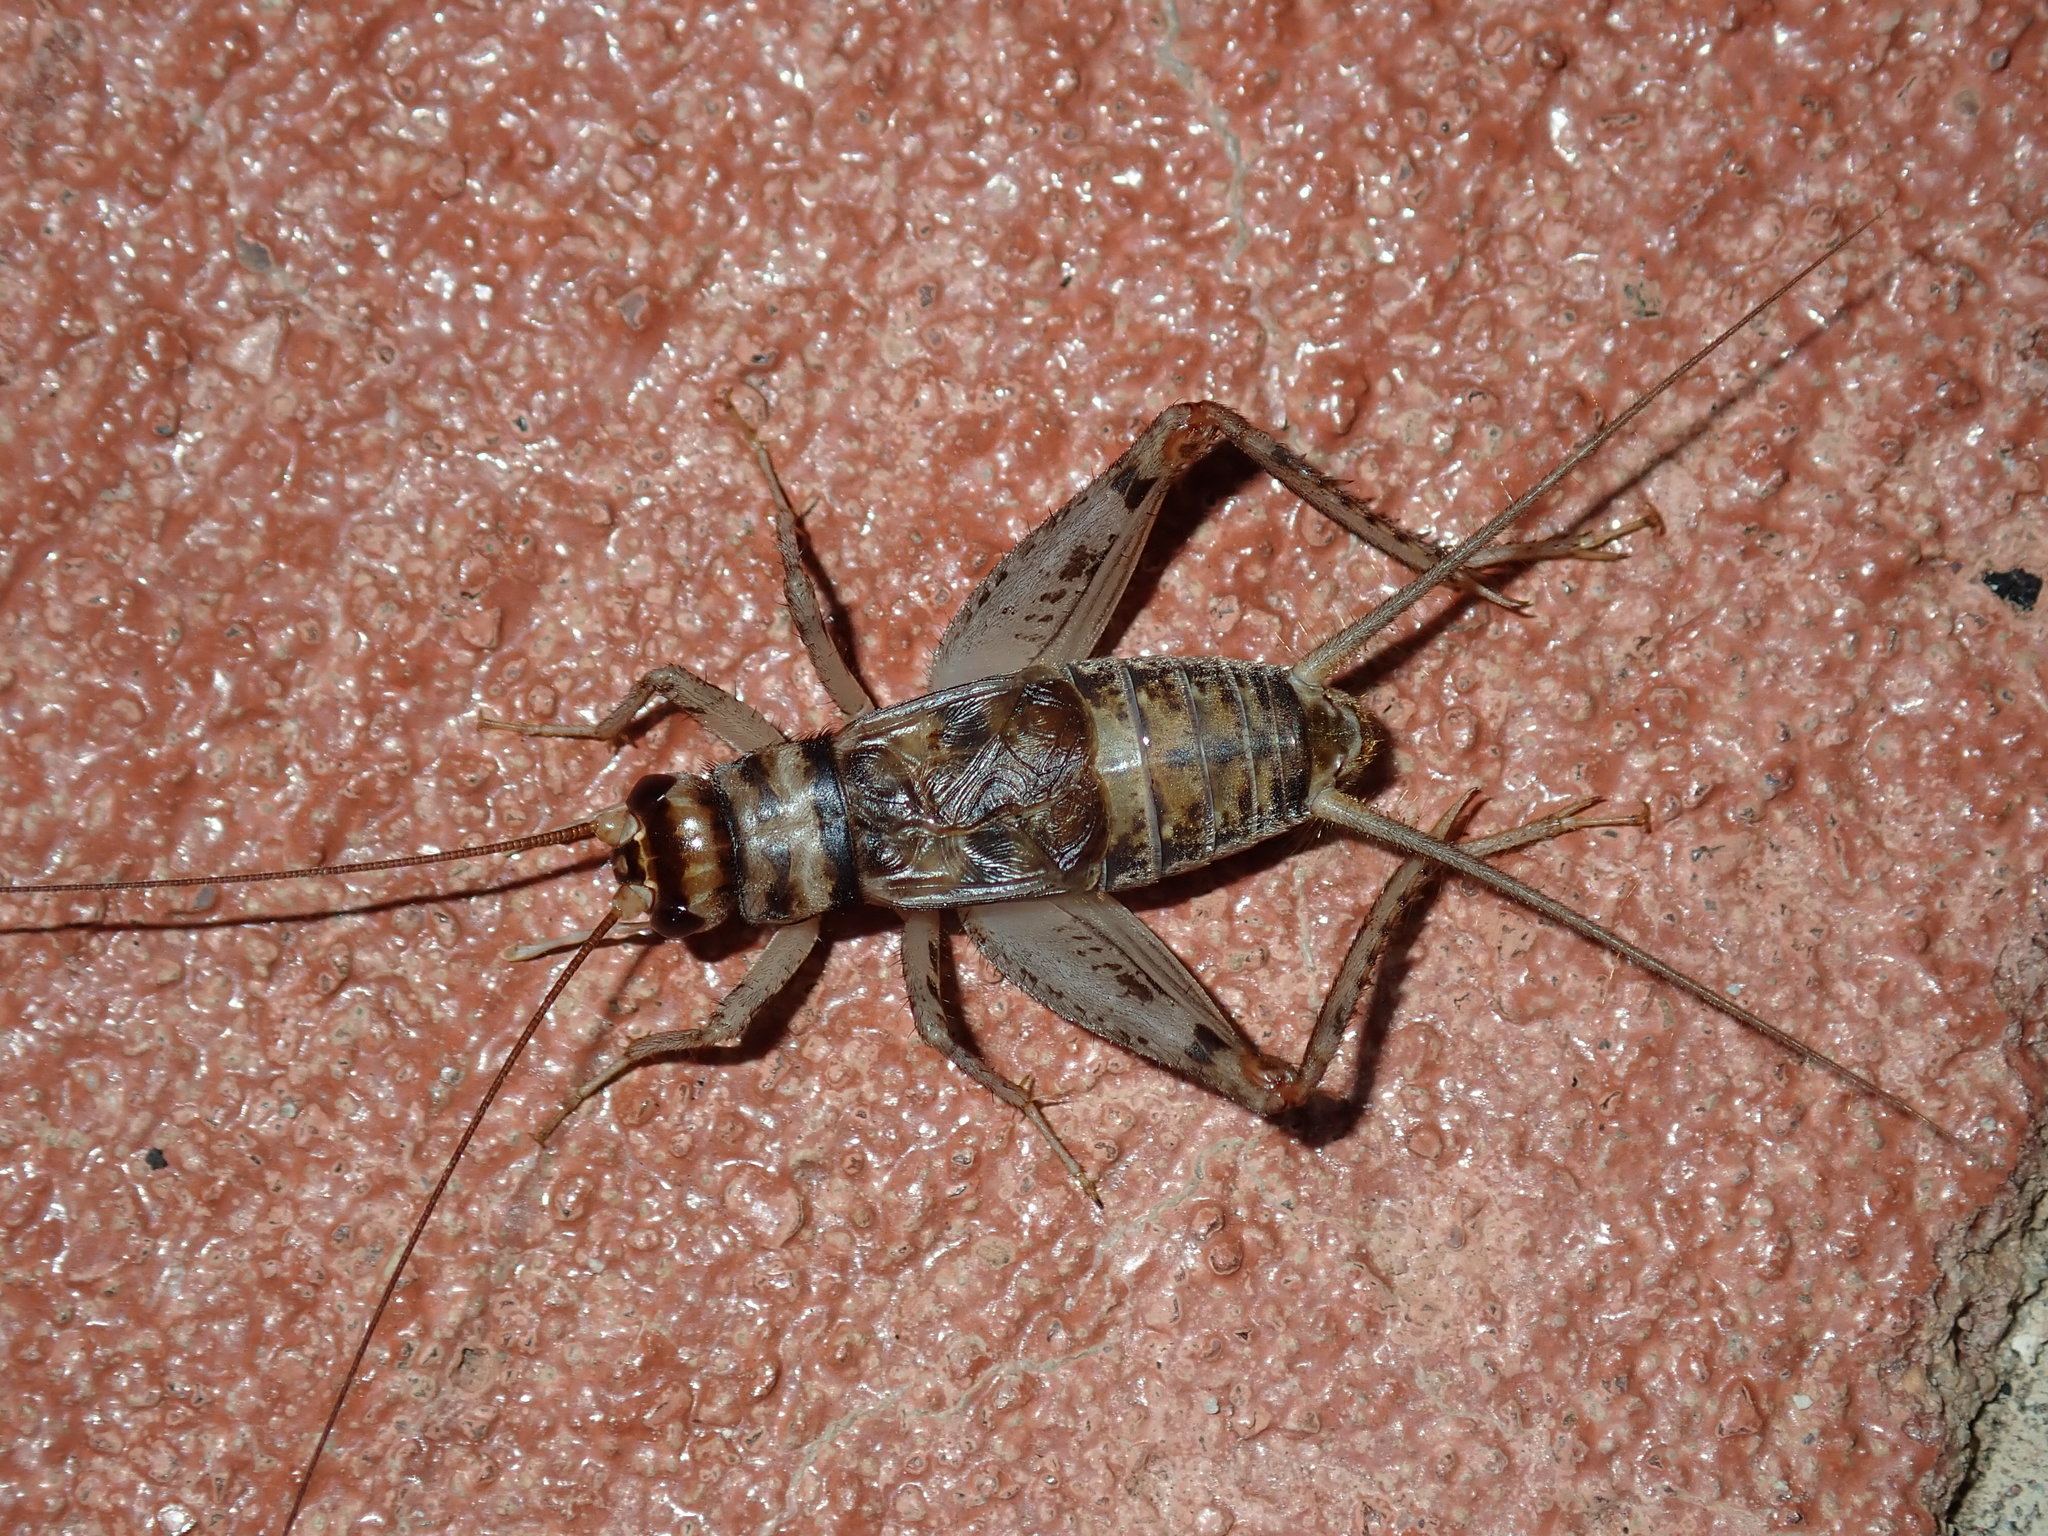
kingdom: Animalia
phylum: Arthropoda
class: Insecta
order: Orthoptera
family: Gryllidae
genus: Gryllodes
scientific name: Gryllodes sigillatus
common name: Tropical house cricket
